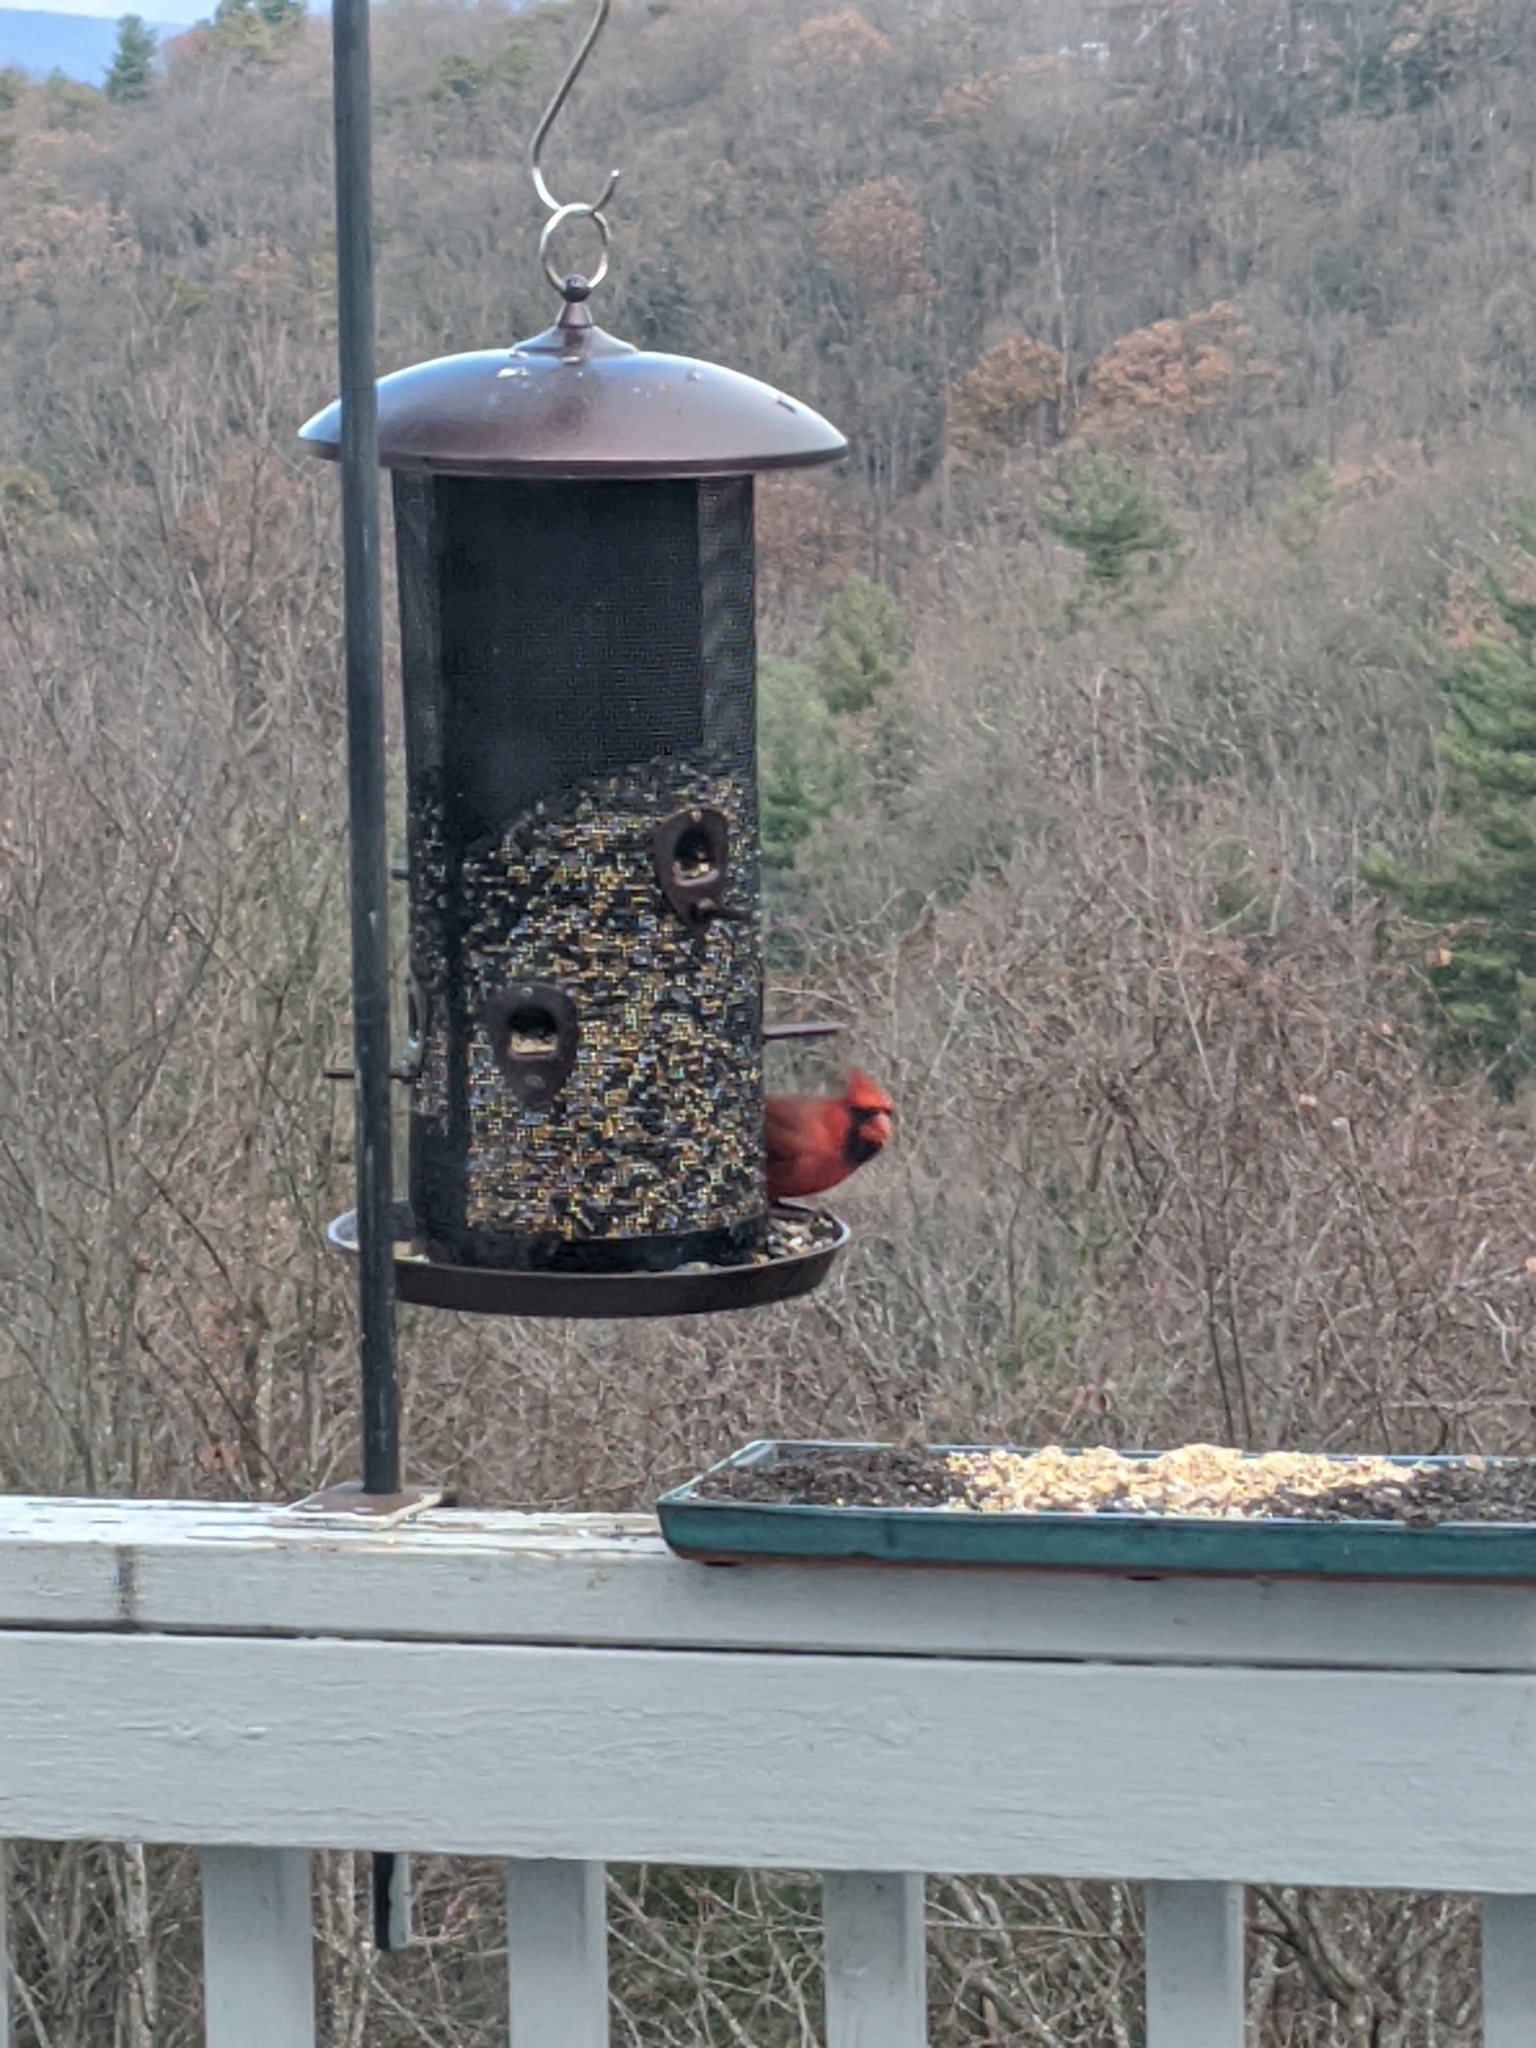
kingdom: Animalia
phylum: Chordata
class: Aves
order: Passeriformes
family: Cardinalidae
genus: Cardinalis
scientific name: Cardinalis cardinalis
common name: Northern cardinal
